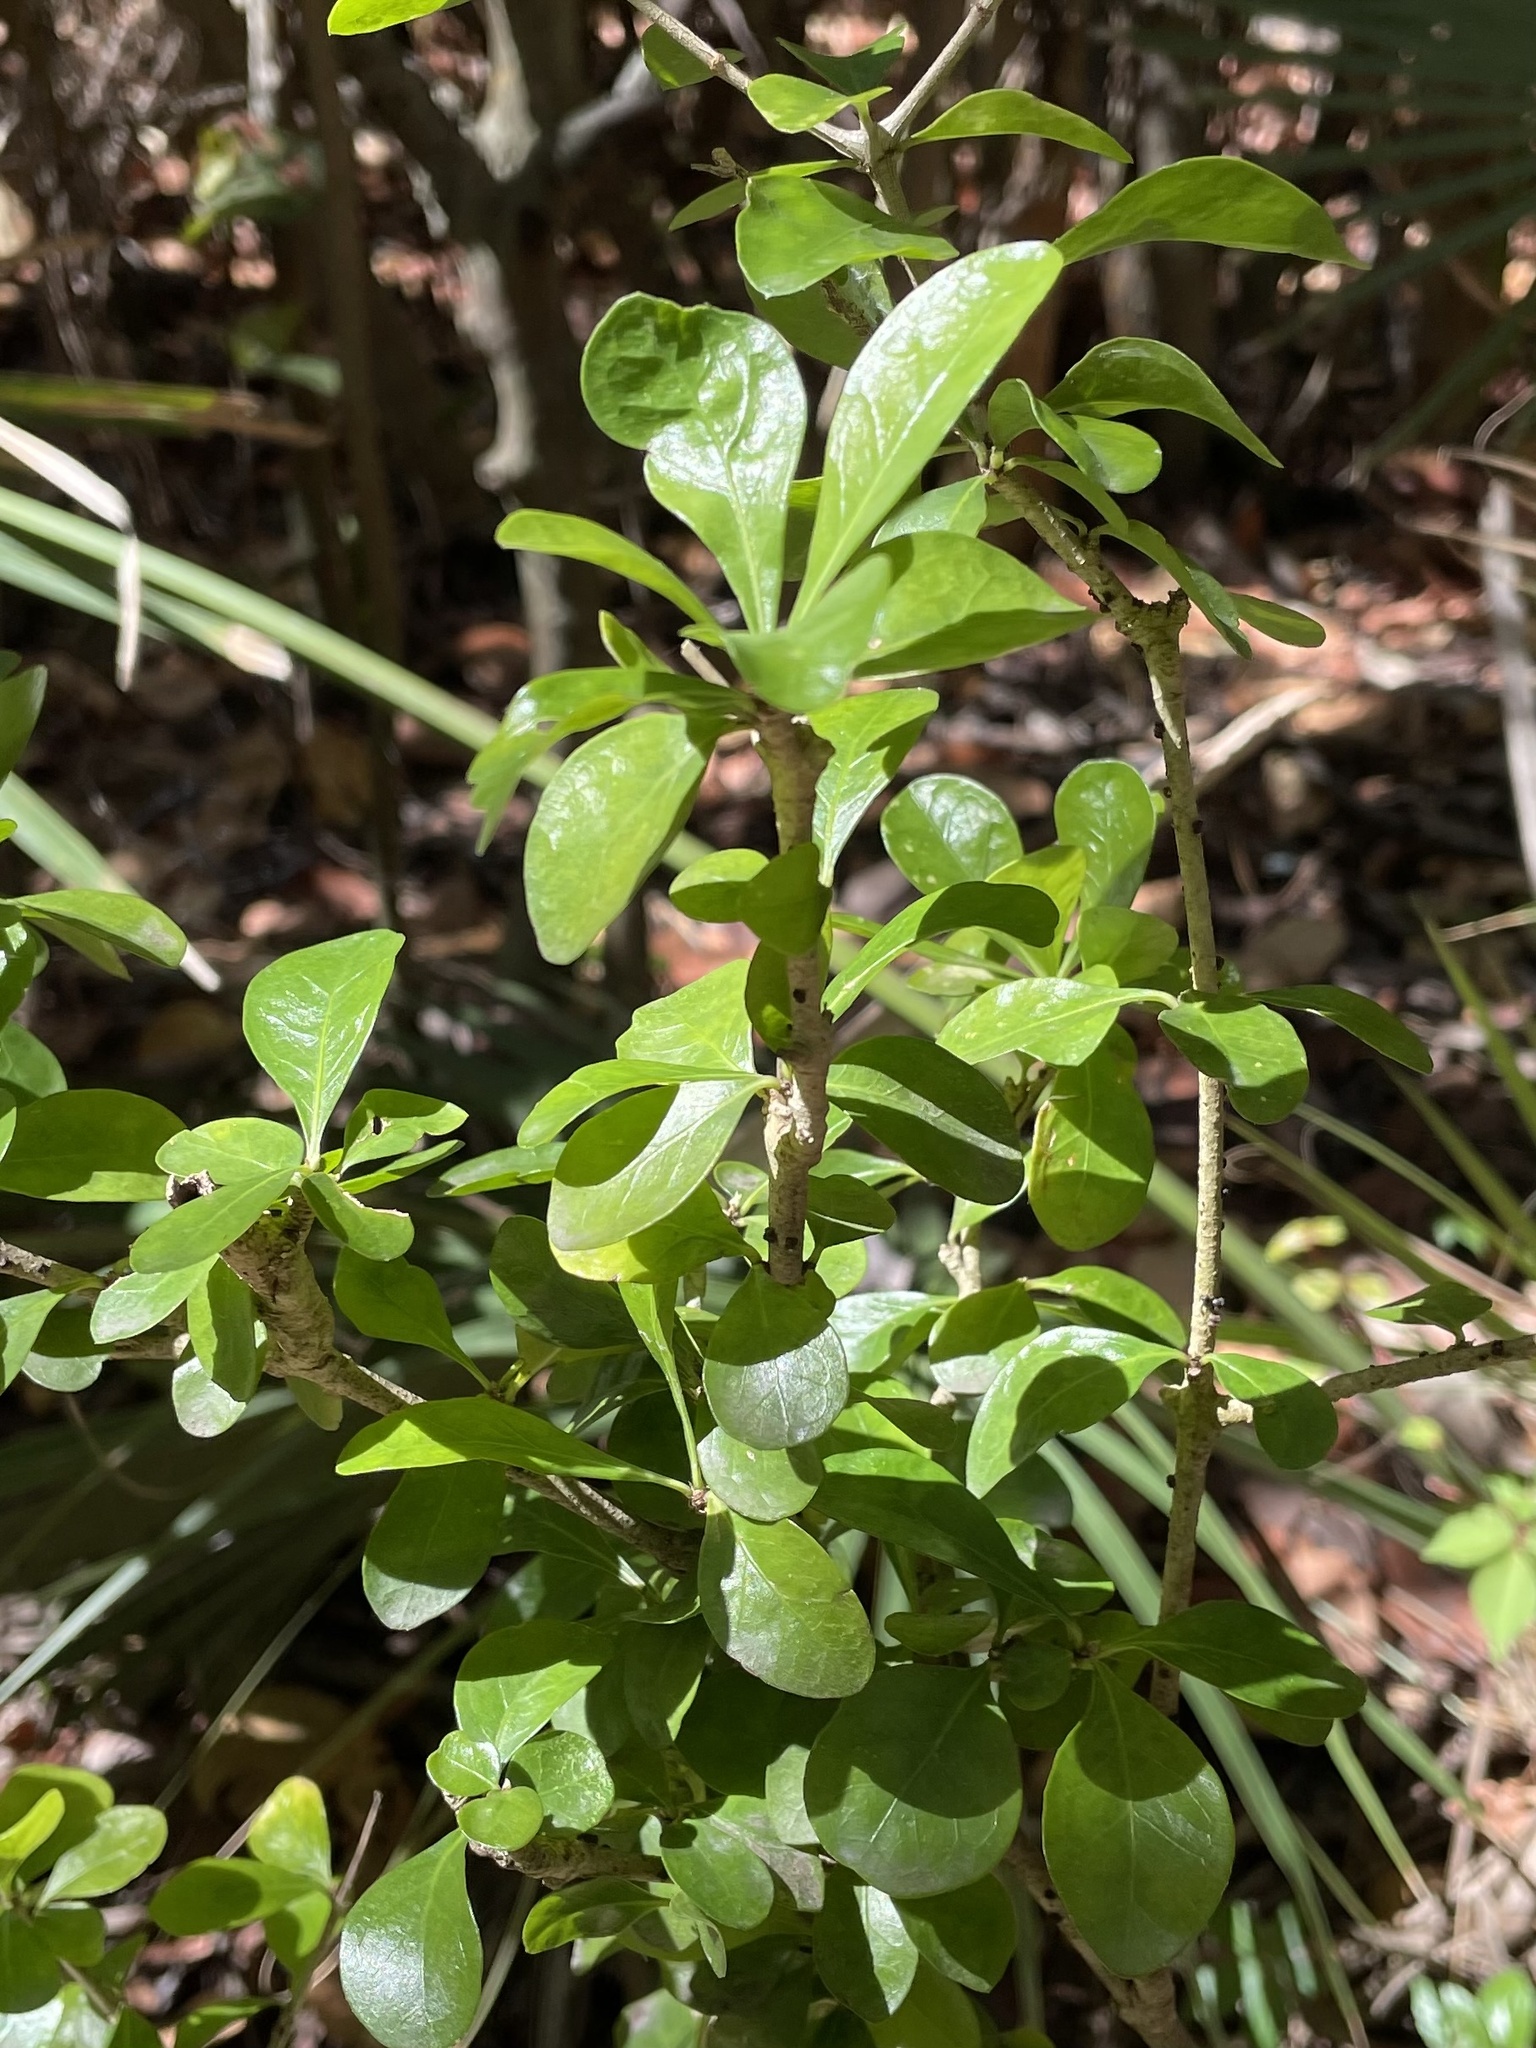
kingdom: Plantae
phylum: Tracheophyta
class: Magnoliopsida
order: Gentianales
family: Rubiaceae
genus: Randia
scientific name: Randia aculeata
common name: Inkberry
